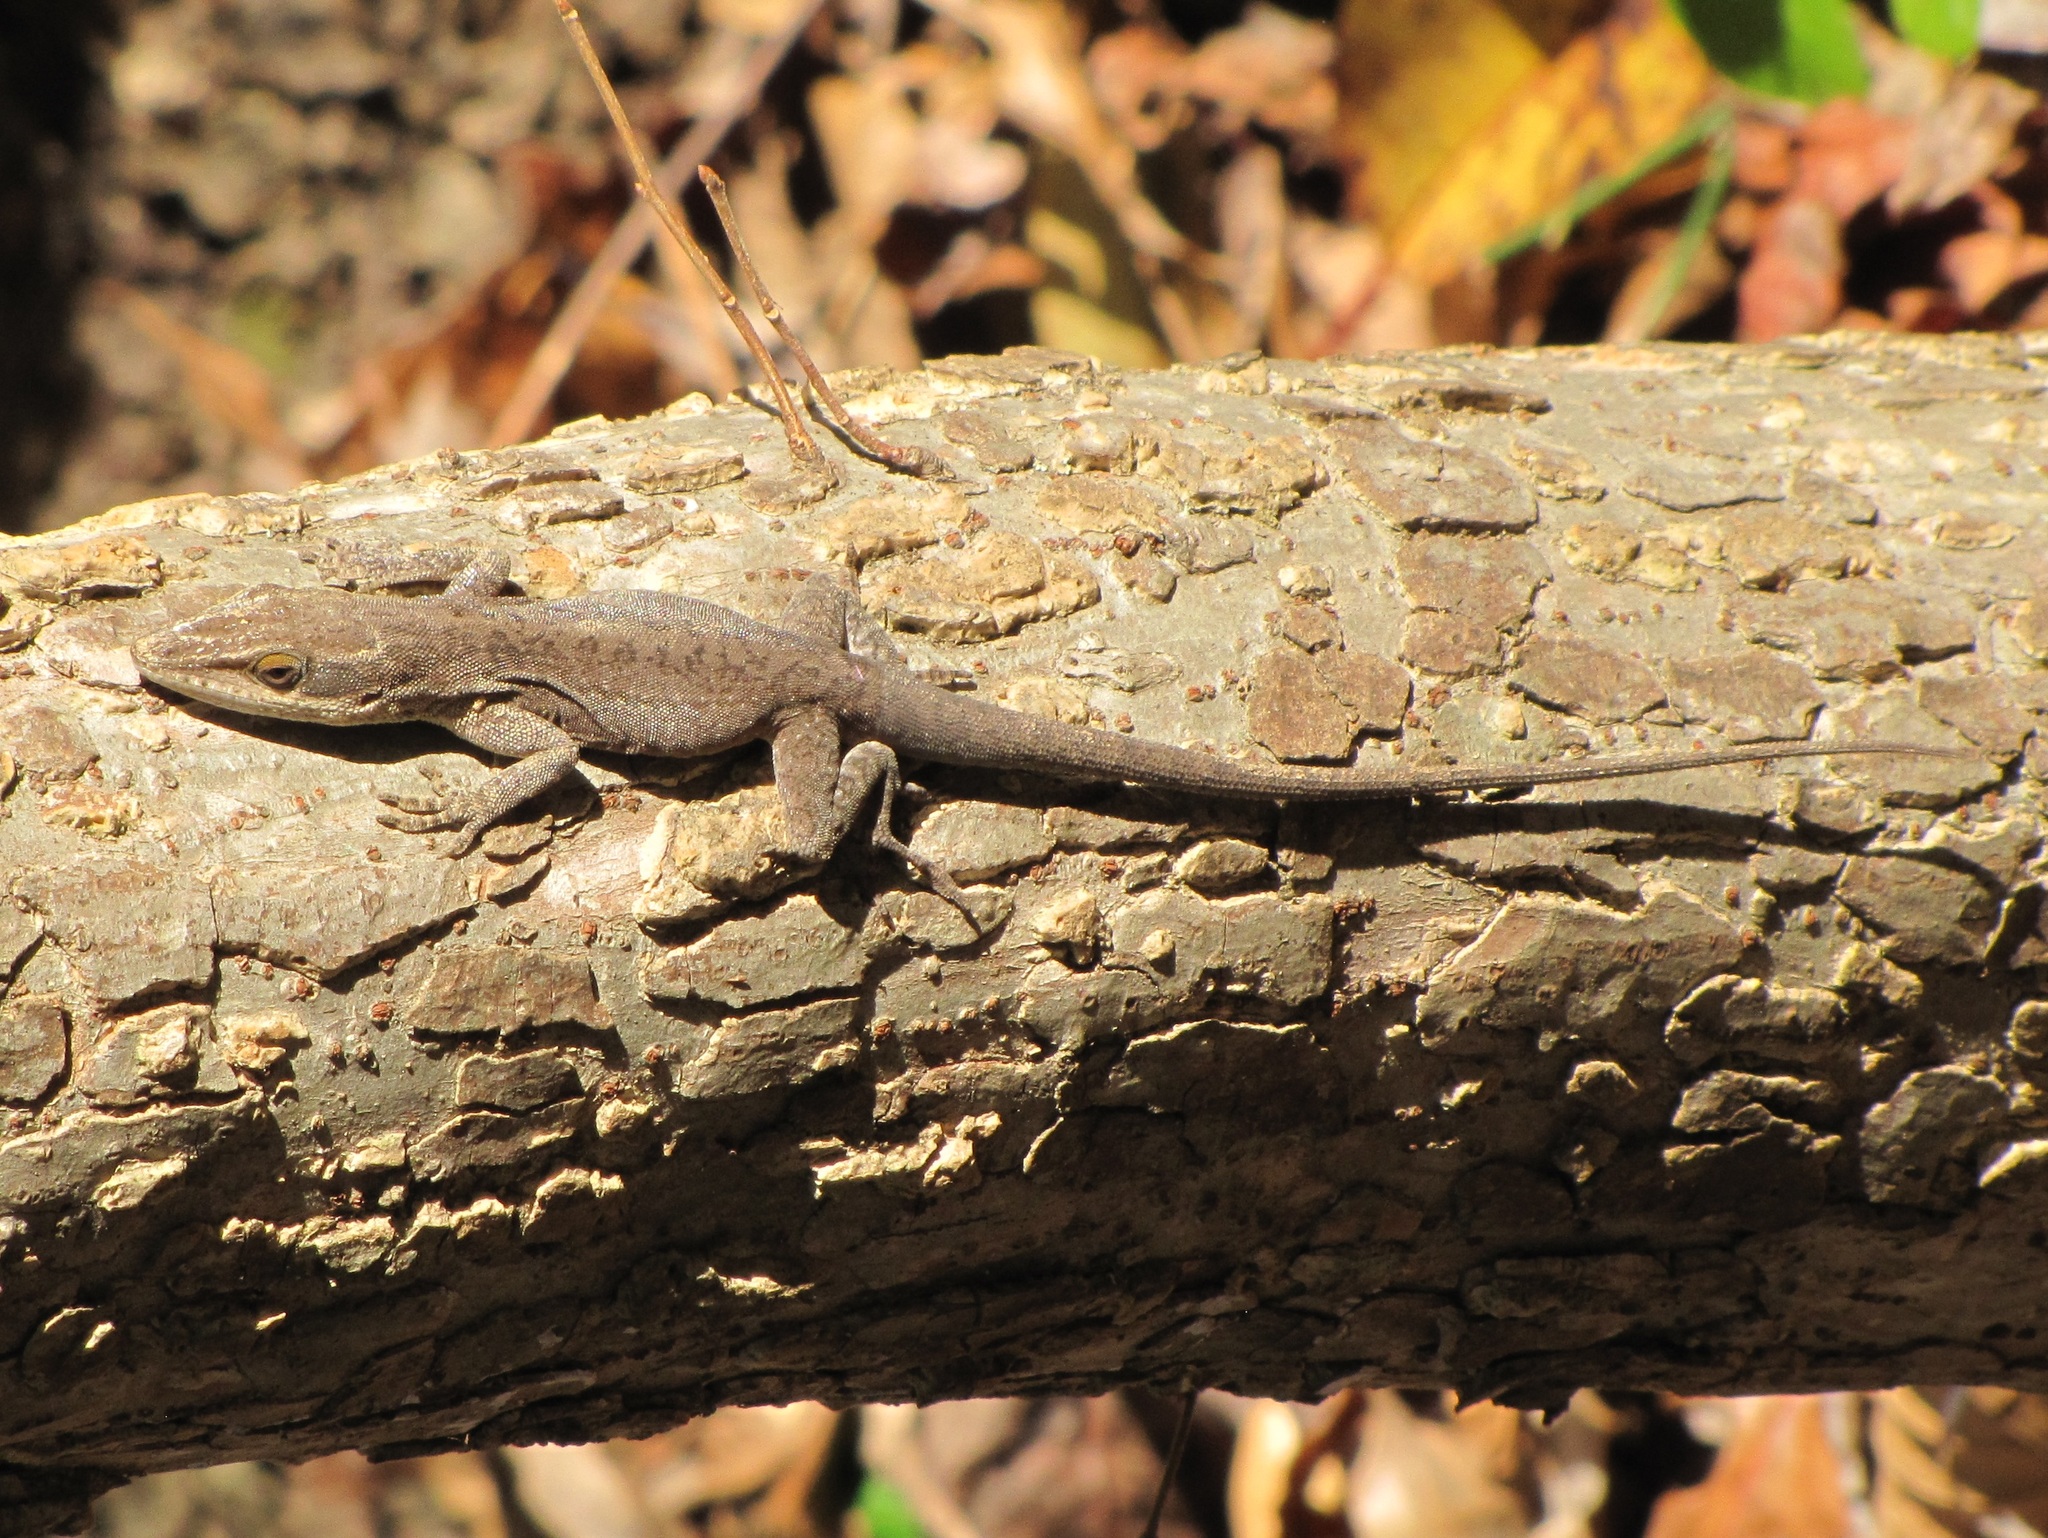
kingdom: Animalia
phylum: Chordata
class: Squamata
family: Dactyloidae
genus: Anolis
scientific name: Anolis carolinensis
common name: Green anole
